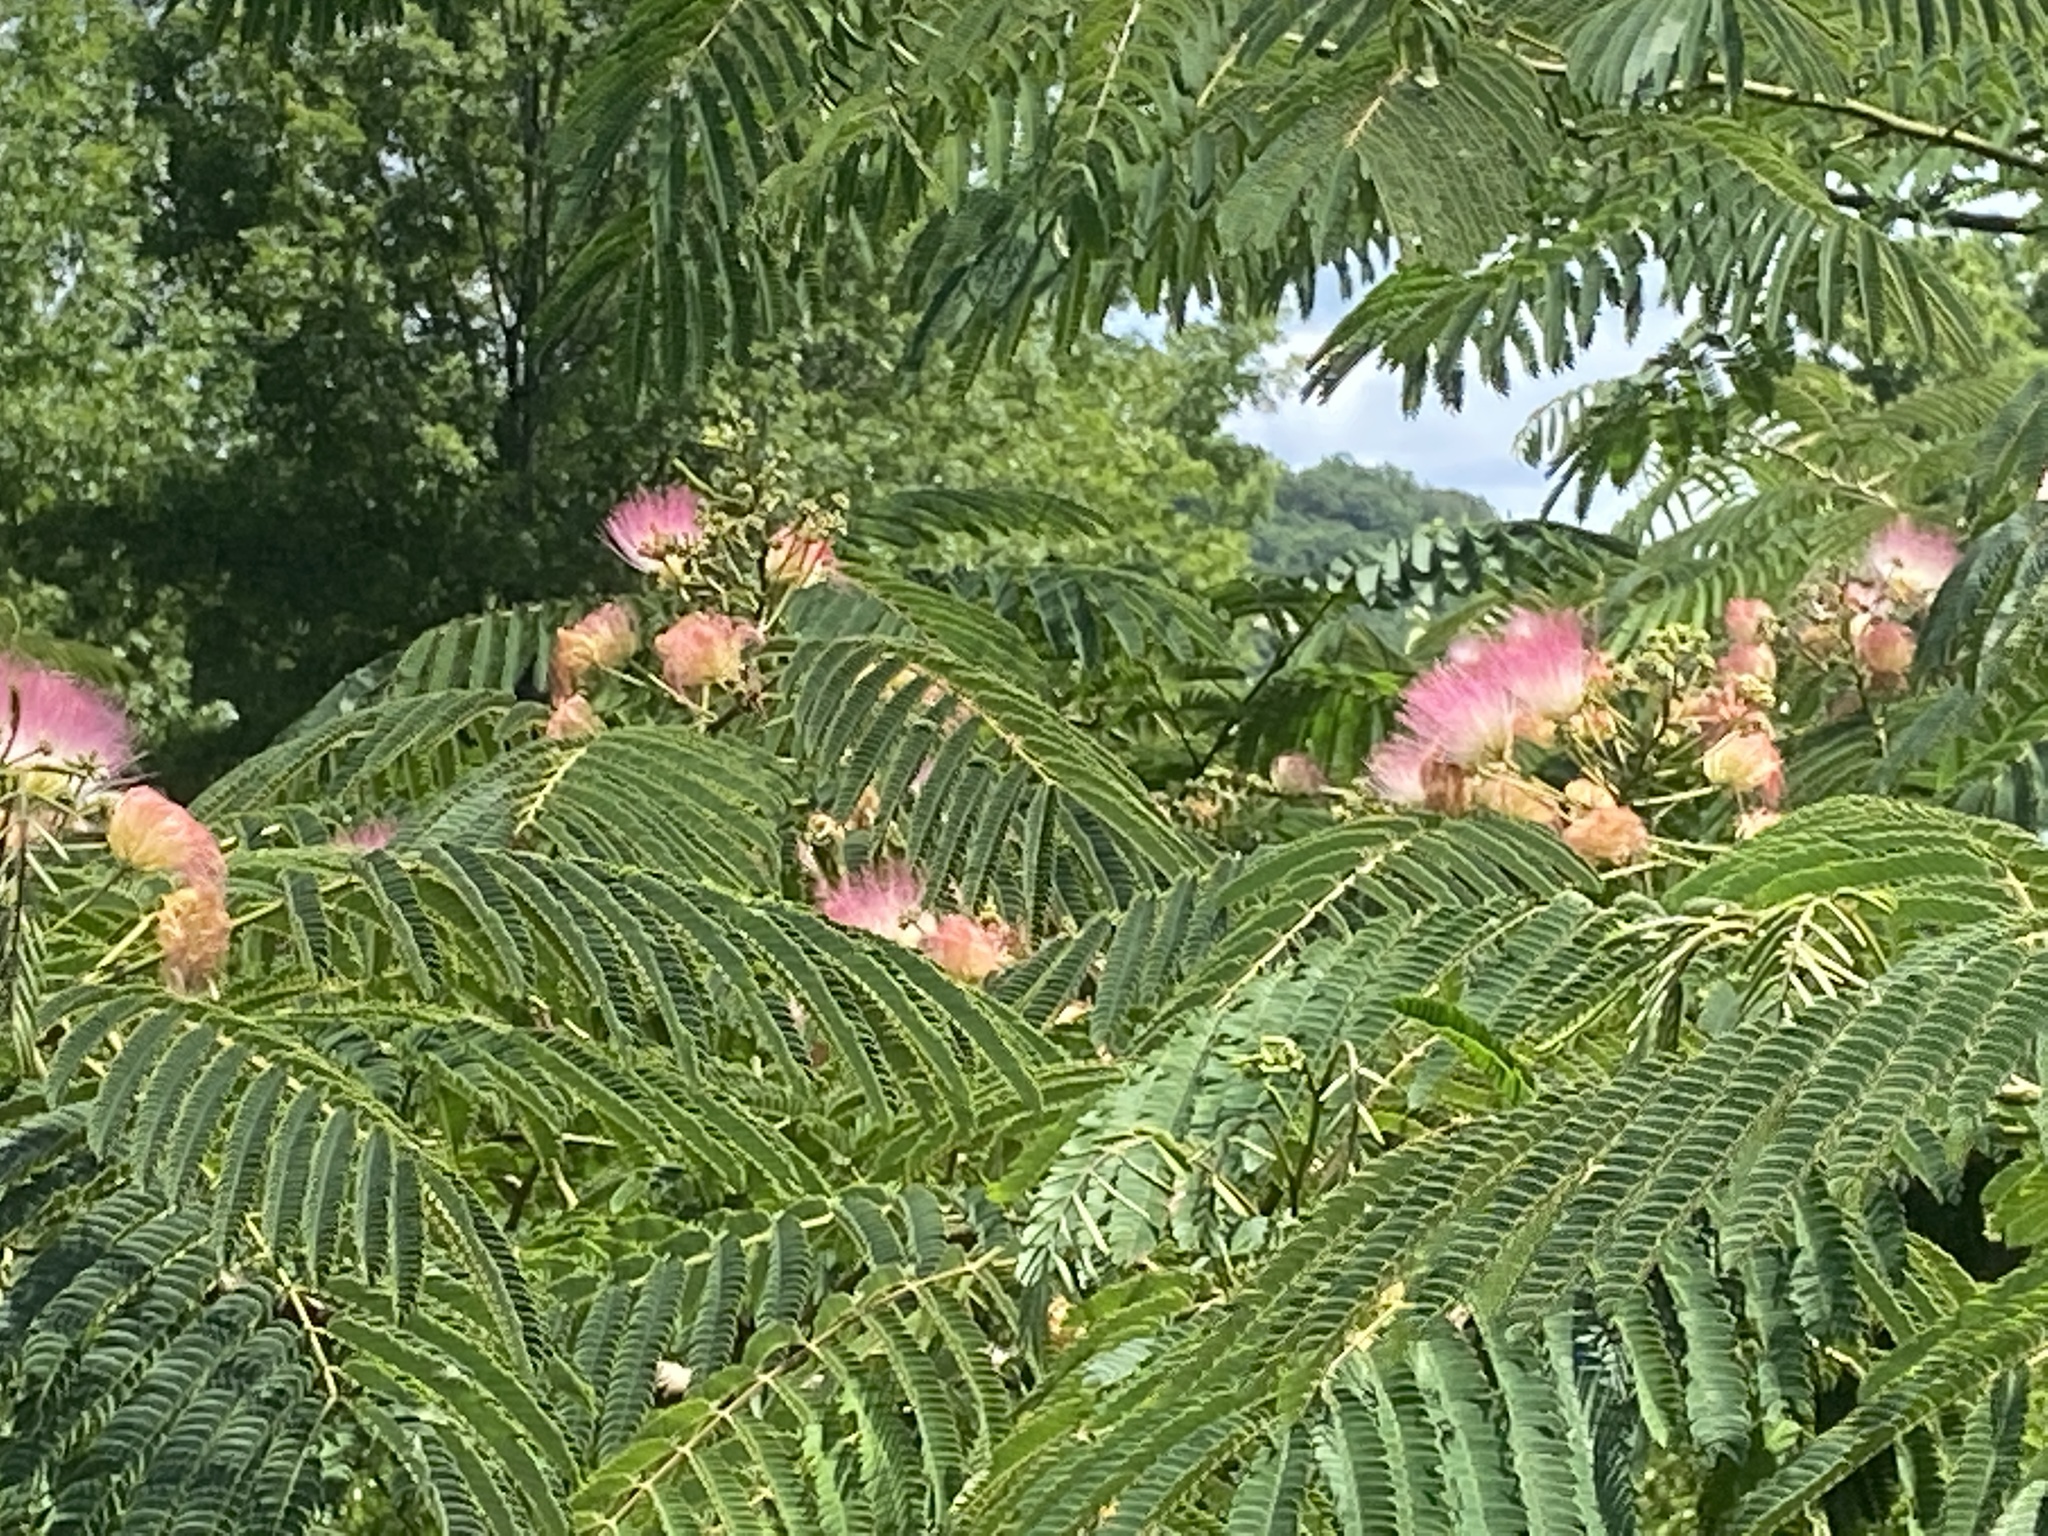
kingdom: Plantae
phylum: Tracheophyta
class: Magnoliopsida
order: Fabales
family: Fabaceae
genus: Albizia
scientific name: Albizia julibrissin
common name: Silktree
